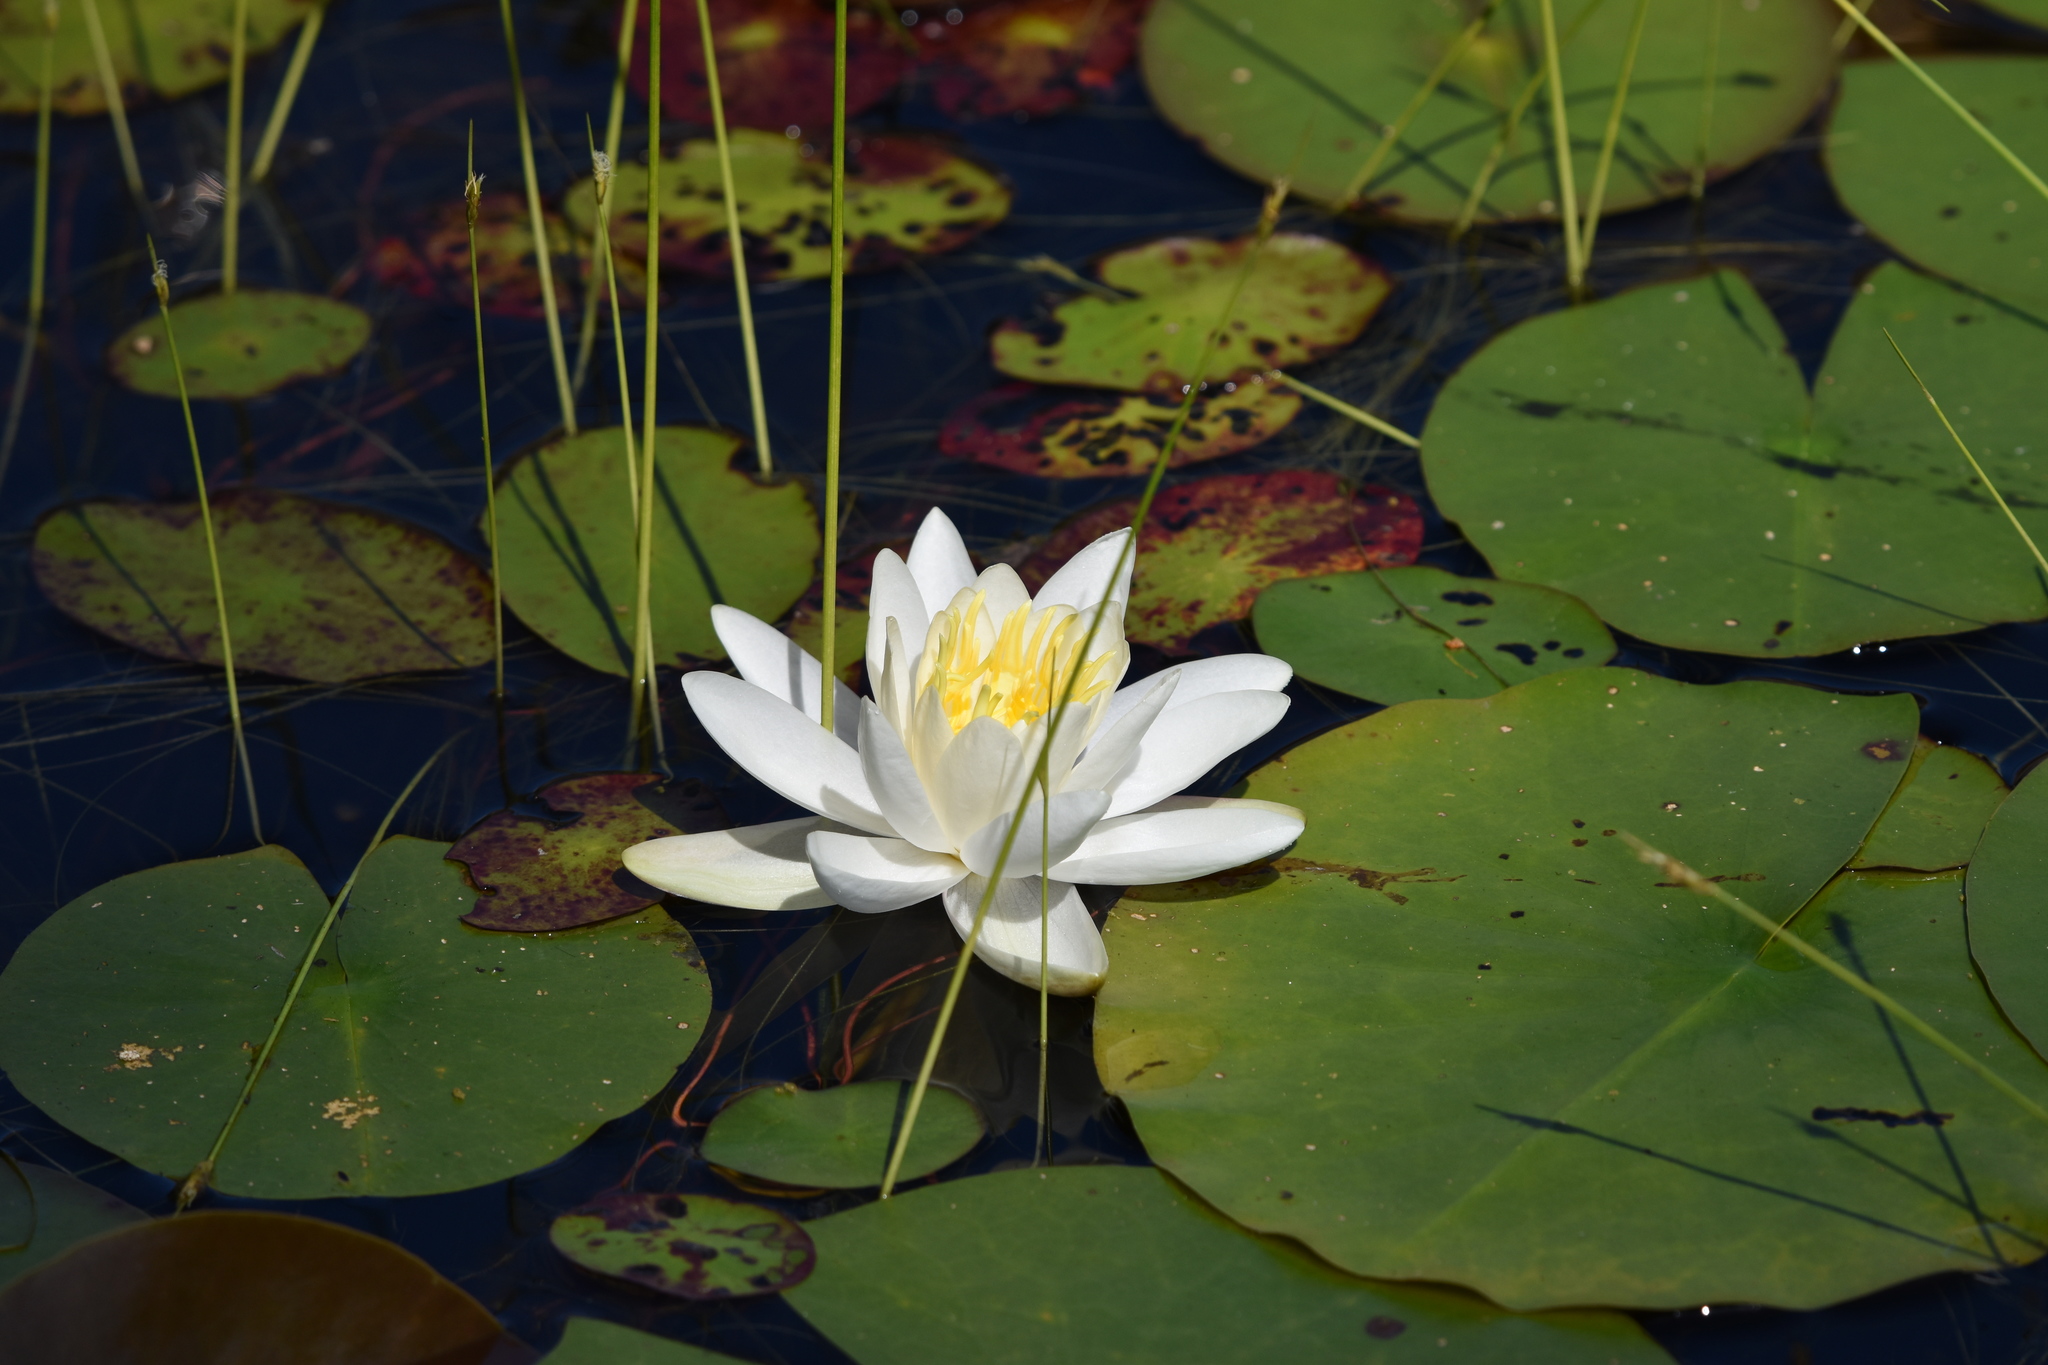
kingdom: Plantae
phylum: Tracheophyta
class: Magnoliopsida
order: Nymphaeales
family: Nymphaeaceae
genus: Nymphaea
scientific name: Nymphaea odorata
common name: Fragrant water-lily
